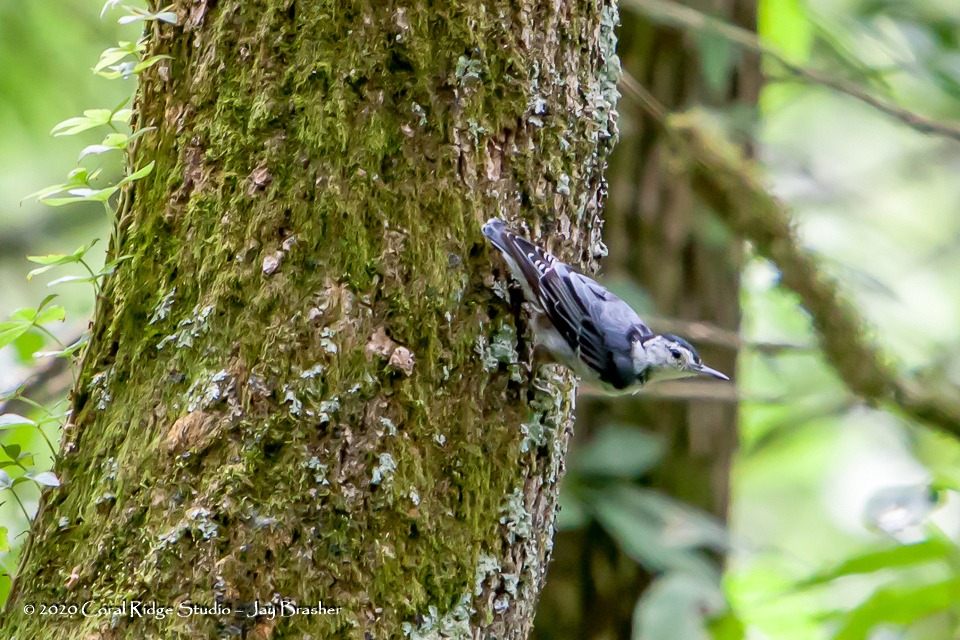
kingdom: Animalia
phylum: Chordata
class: Aves
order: Passeriformes
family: Sittidae
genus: Sitta
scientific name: Sitta carolinensis
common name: White-breasted nuthatch
